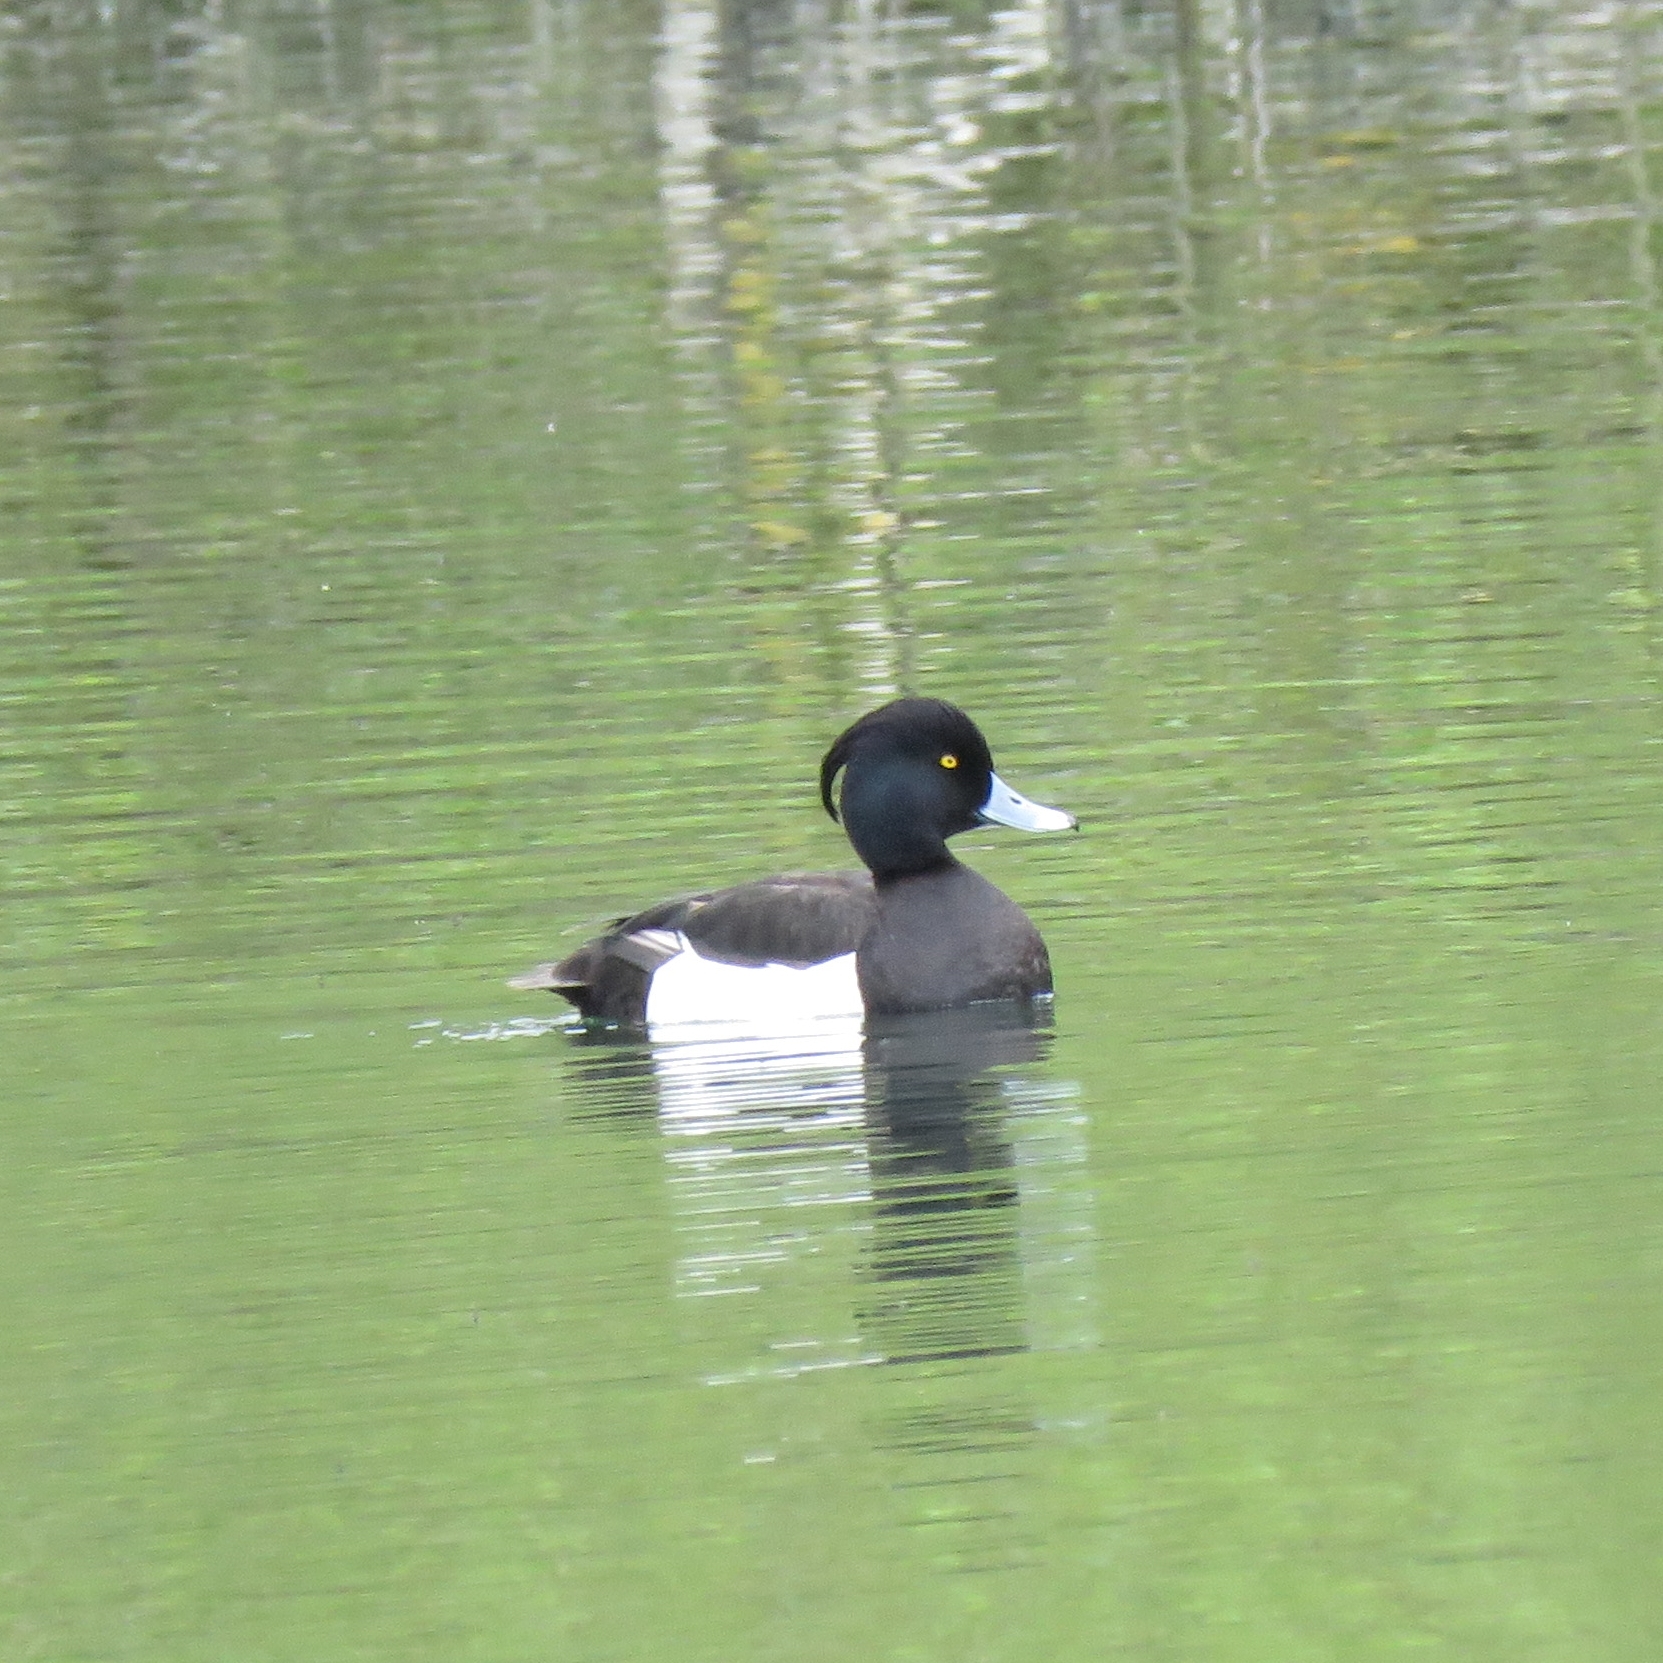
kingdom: Animalia
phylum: Chordata
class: Aves
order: Anseriformes
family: Anatidae
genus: Aythya
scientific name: Aythya fuligula
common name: Tufted duck
